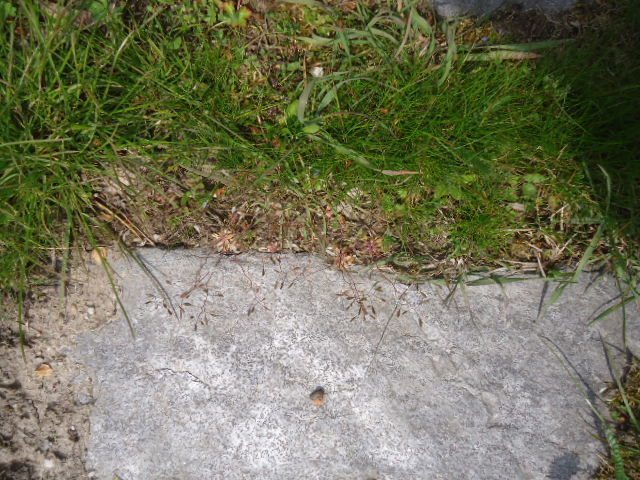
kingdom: Plantae
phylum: Tracheophyta
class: Magnoliopsida
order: Brassicales
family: Brassicaceae
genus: Draba
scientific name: Draba verna
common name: Spring draba
